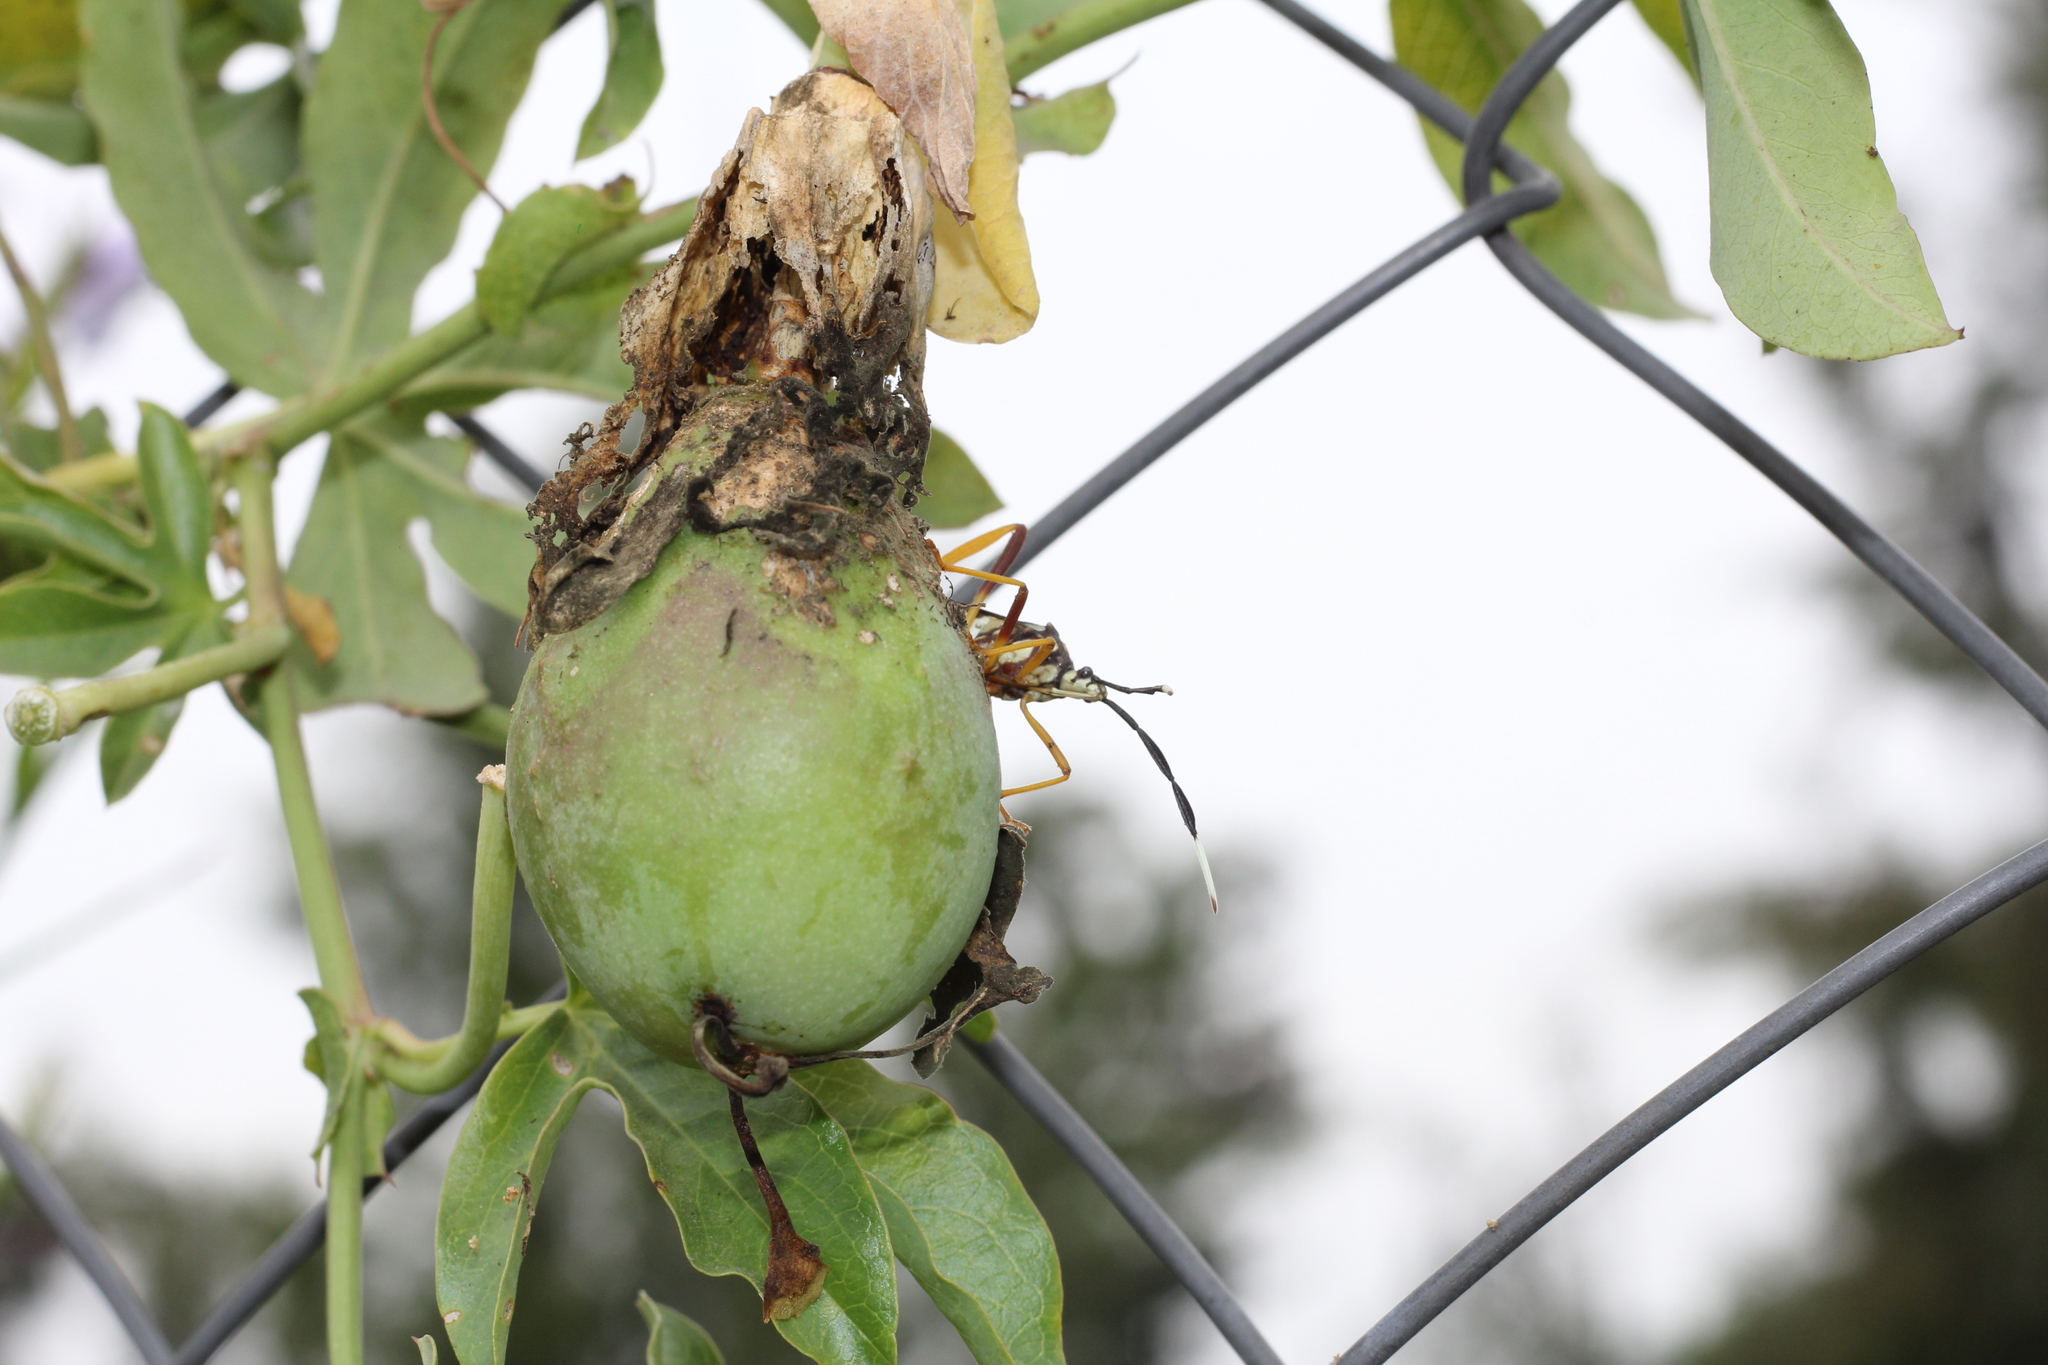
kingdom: Animalia
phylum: Arthropoda
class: Insecta
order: Hemiptera
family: Coreidae
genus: Holhymenia
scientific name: Holhymenia histrio
